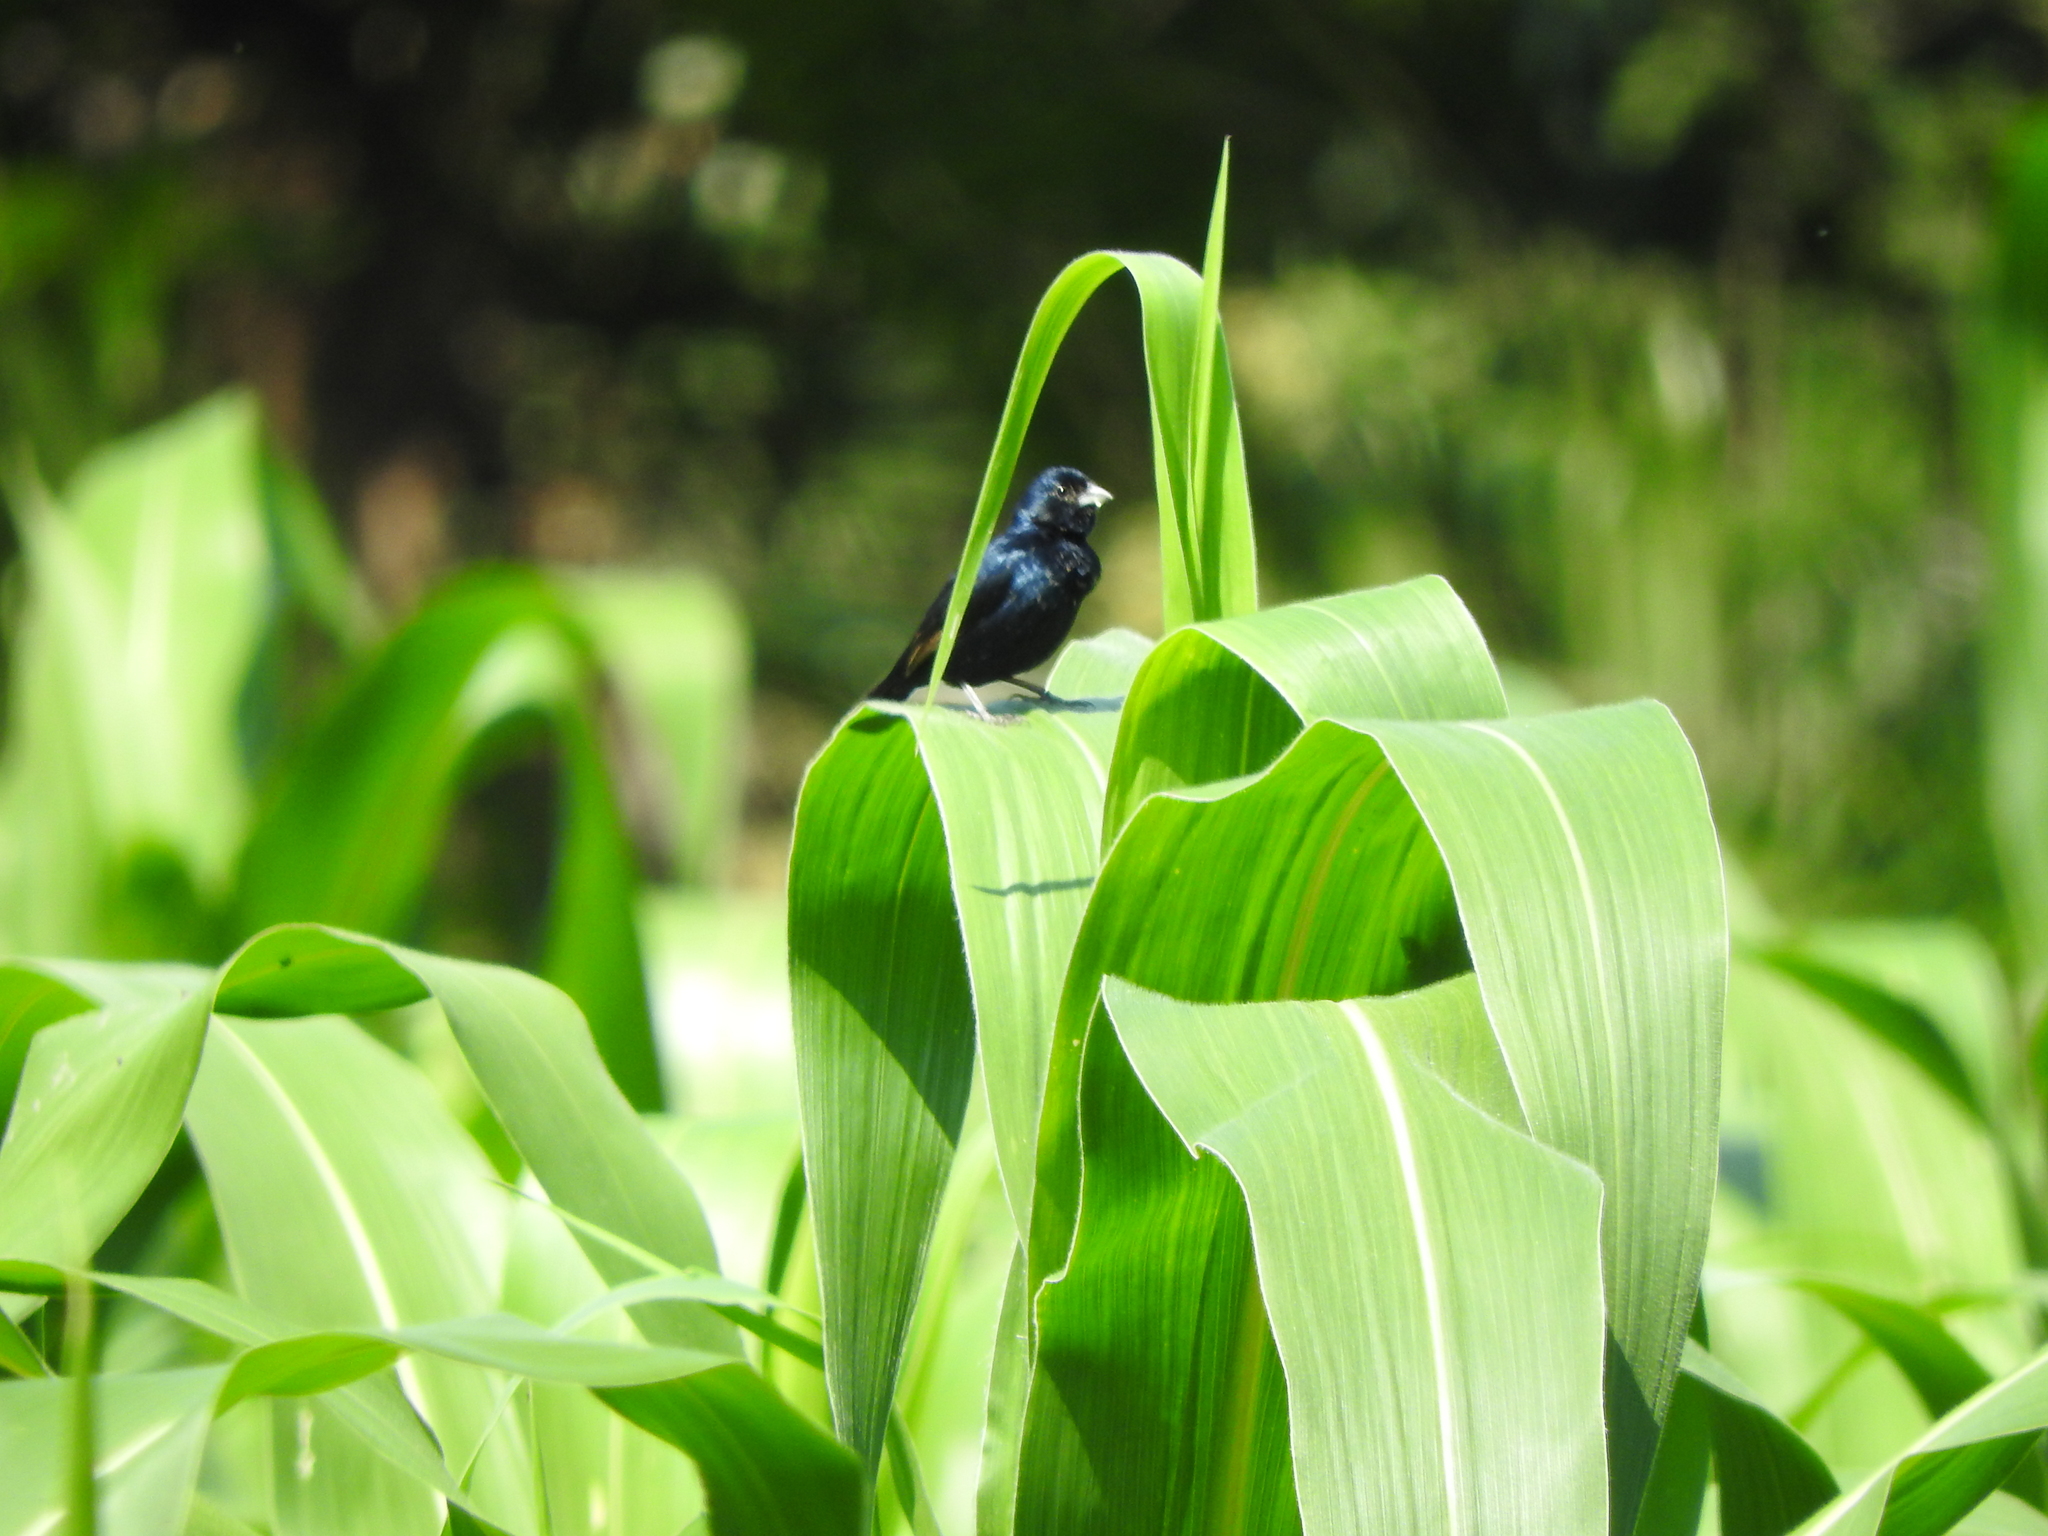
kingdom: Animalia
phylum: Chordata
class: Aves
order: Passeriformes
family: Thraupidae
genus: Volatinia
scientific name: Volatinia jacarina
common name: Blue-black grassquit
